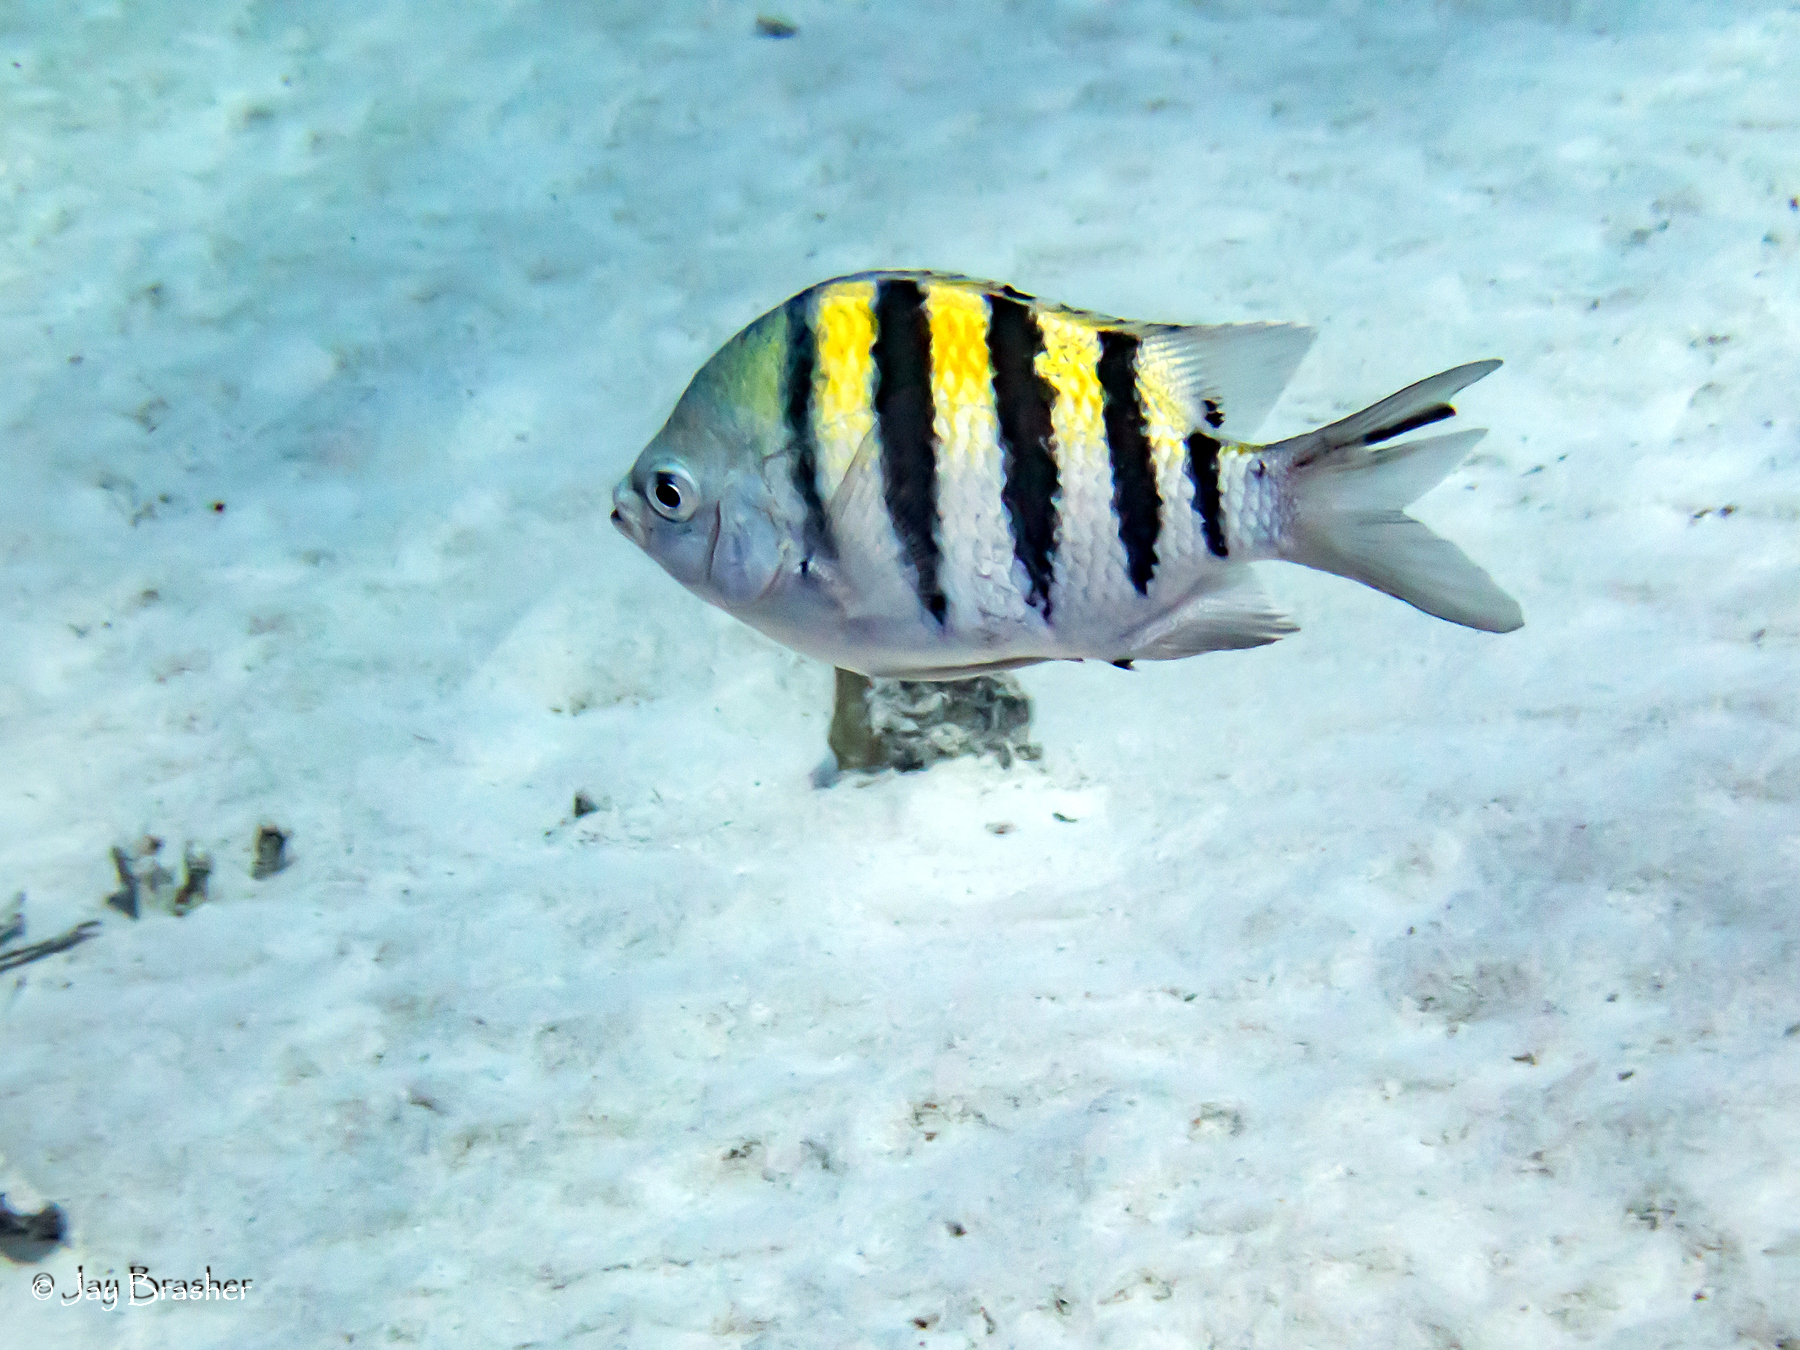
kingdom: Animalia
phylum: Chordata
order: Perciformes
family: Pomacentridae
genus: Abudefduf
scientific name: Abudefduf saxatilis
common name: Sergeant major
